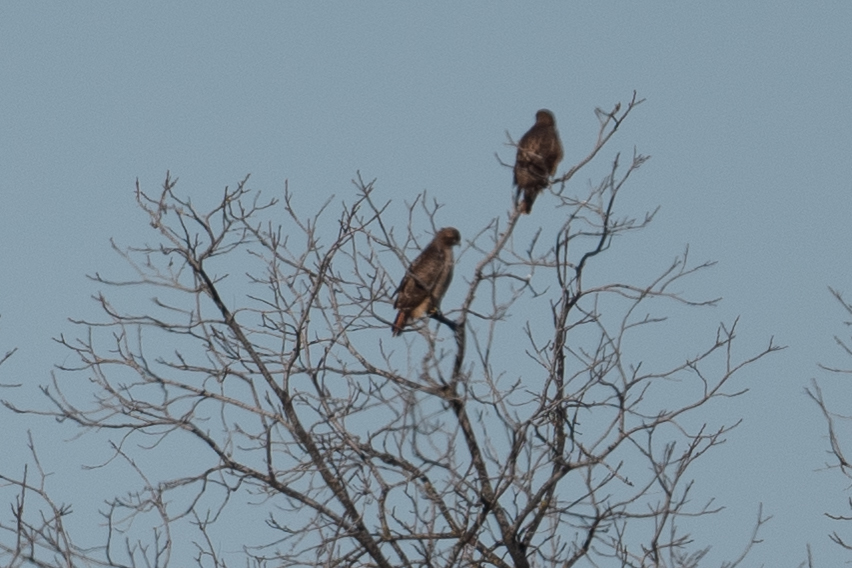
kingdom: Animalia
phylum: Chordata
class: Aves
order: Accipitriformes
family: Accipitridae
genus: Buteo
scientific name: Buteo jamaicensis
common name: Red-tailed hawk
